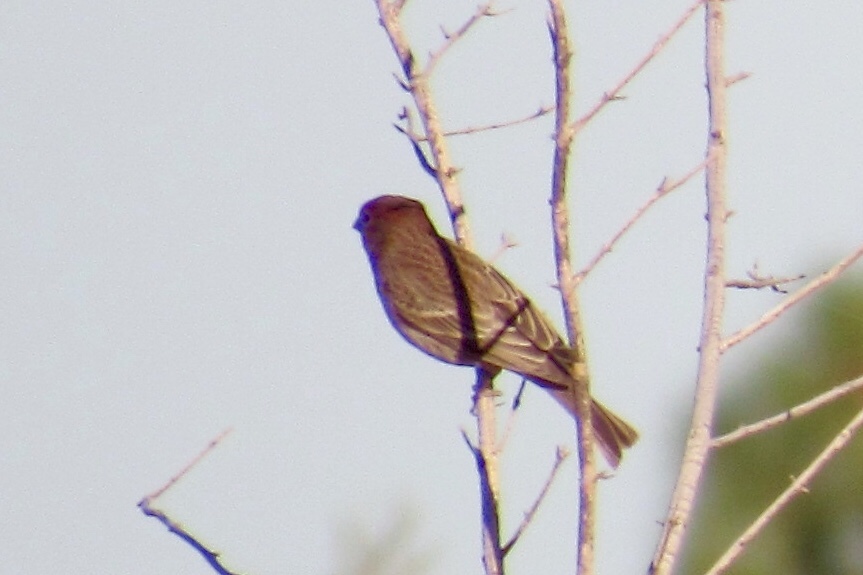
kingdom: Animalia
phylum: Chordata
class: Aves
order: Passeriformes
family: Fringillidae
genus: Haemorhous
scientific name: Haemorhous mexicanus
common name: House finch
